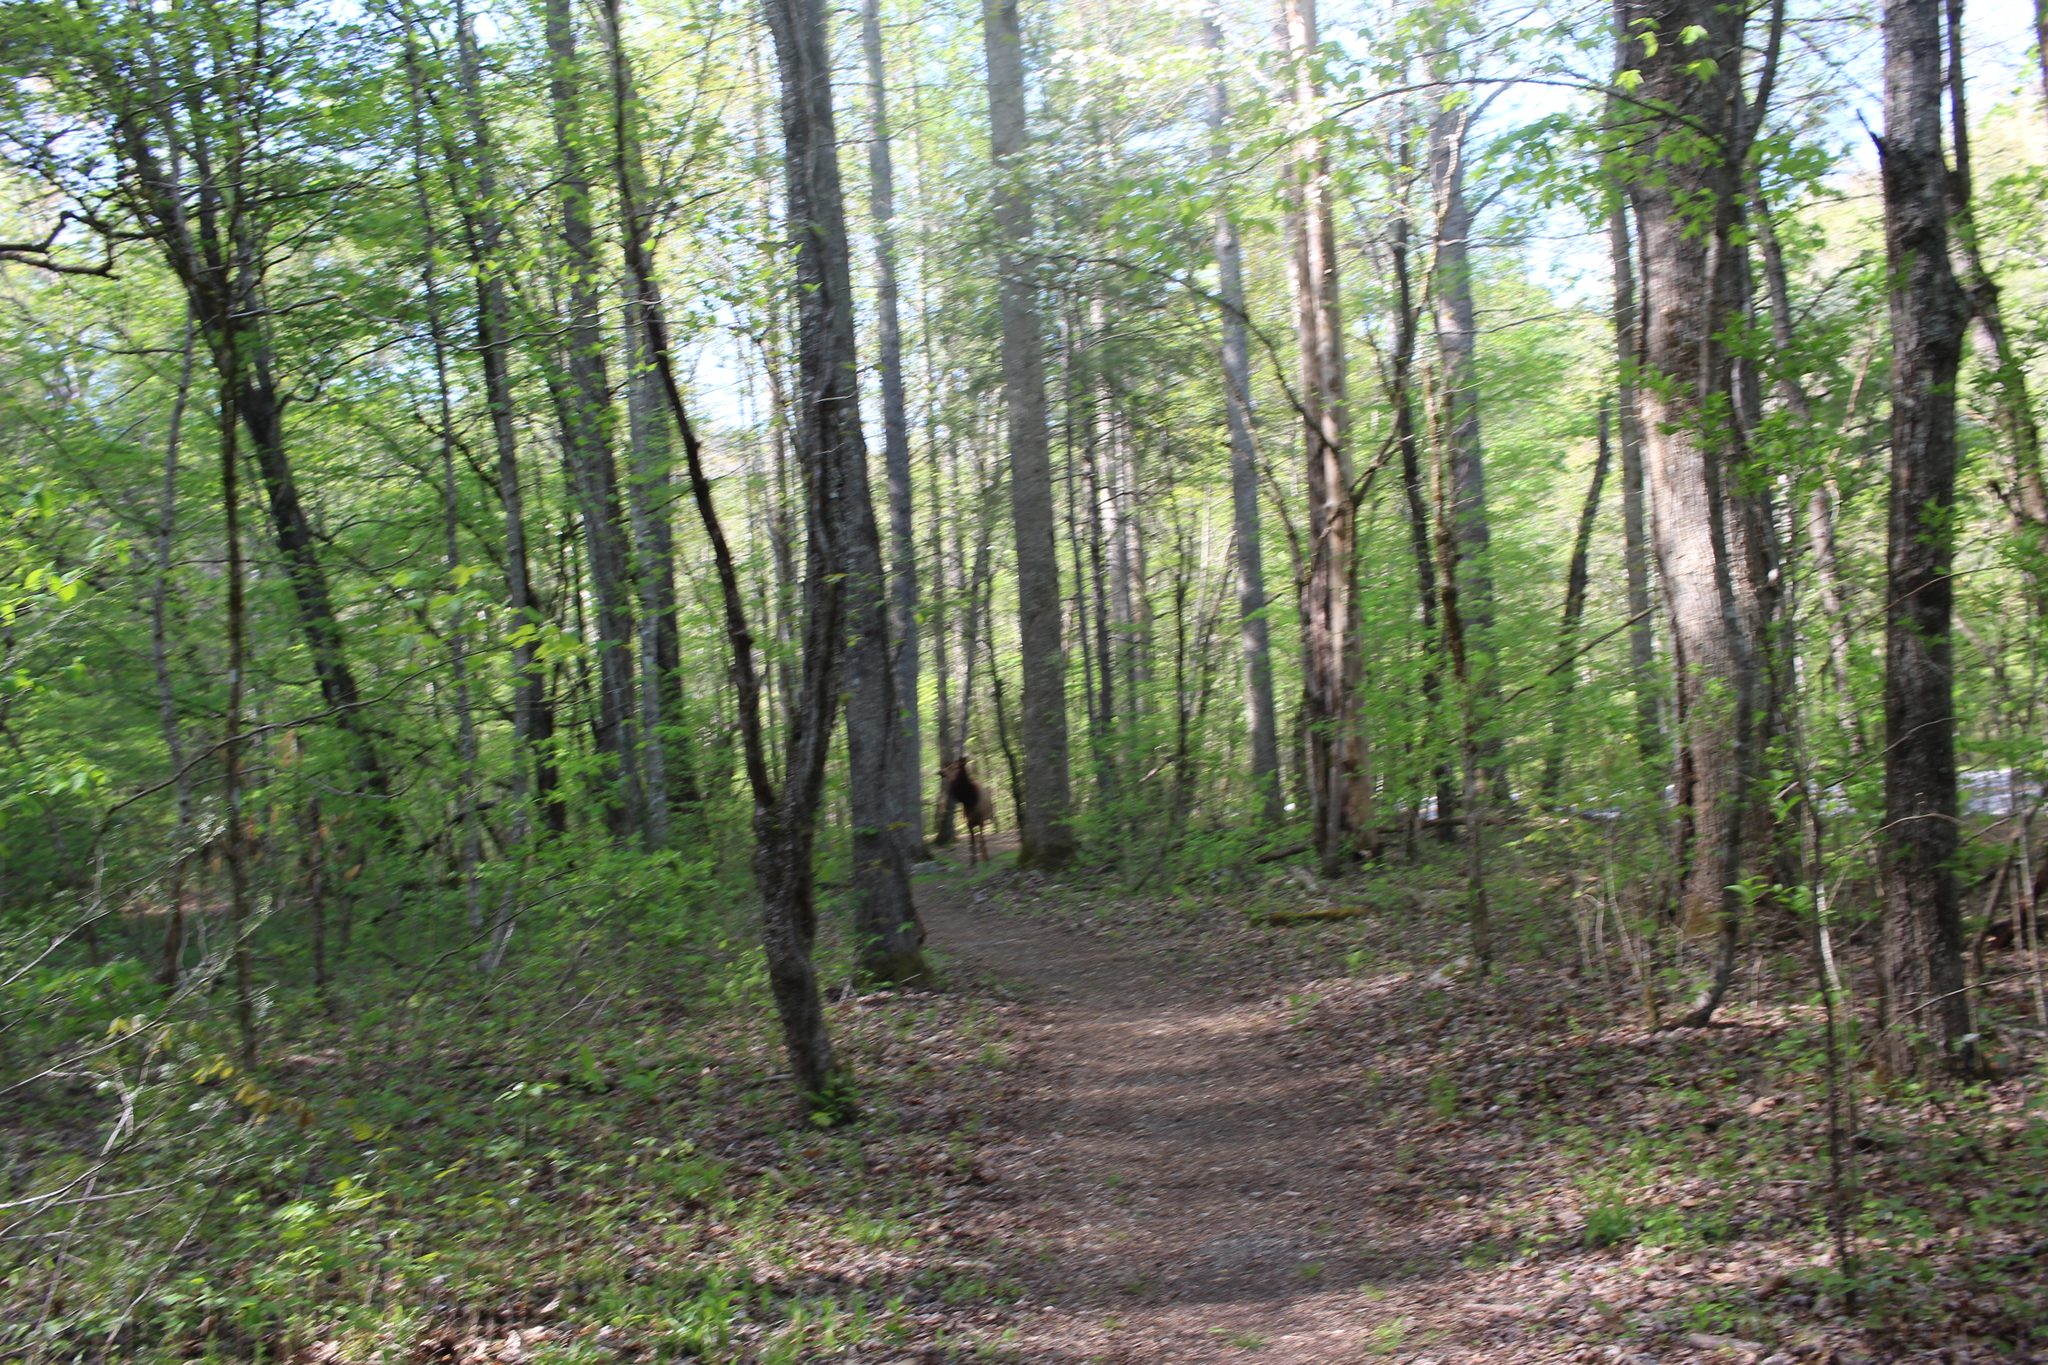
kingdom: Animalia
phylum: Chordata
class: Mammalia
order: Artiodactyla
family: Cervidae
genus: Cervus
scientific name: Cervus elaphus
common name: Red deer
